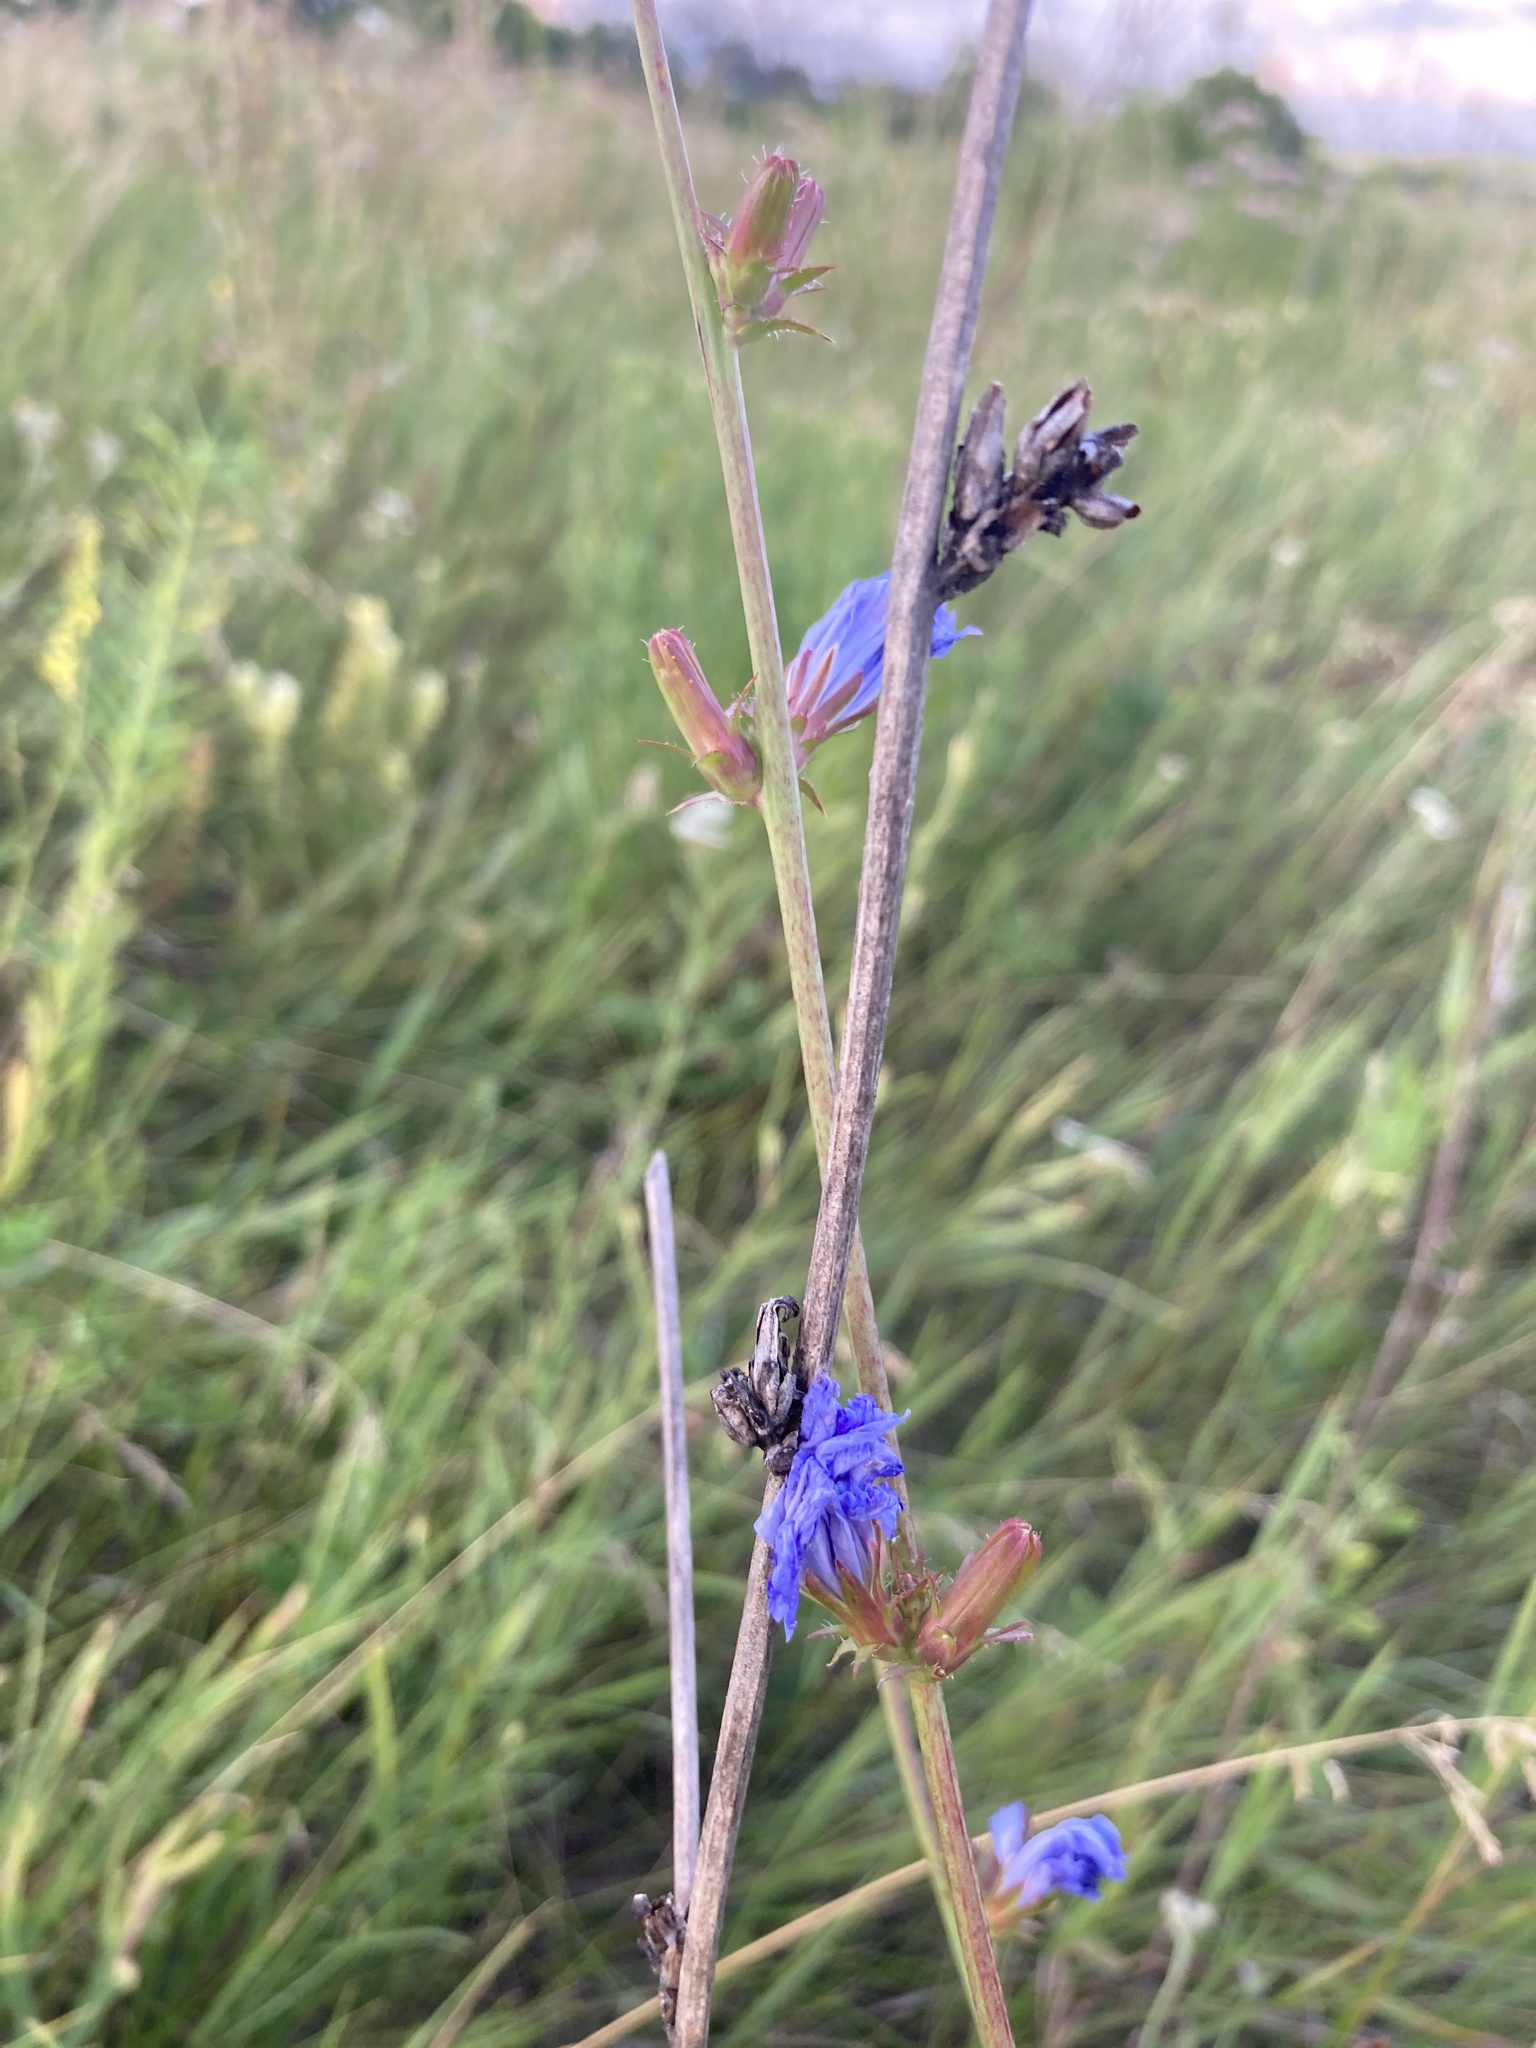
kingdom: Plantae
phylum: Tracheophyta
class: Magnoliopsida
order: Asterales
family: Asteraceae
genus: Cichorium
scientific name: Cichorium intybus
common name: Chicory
